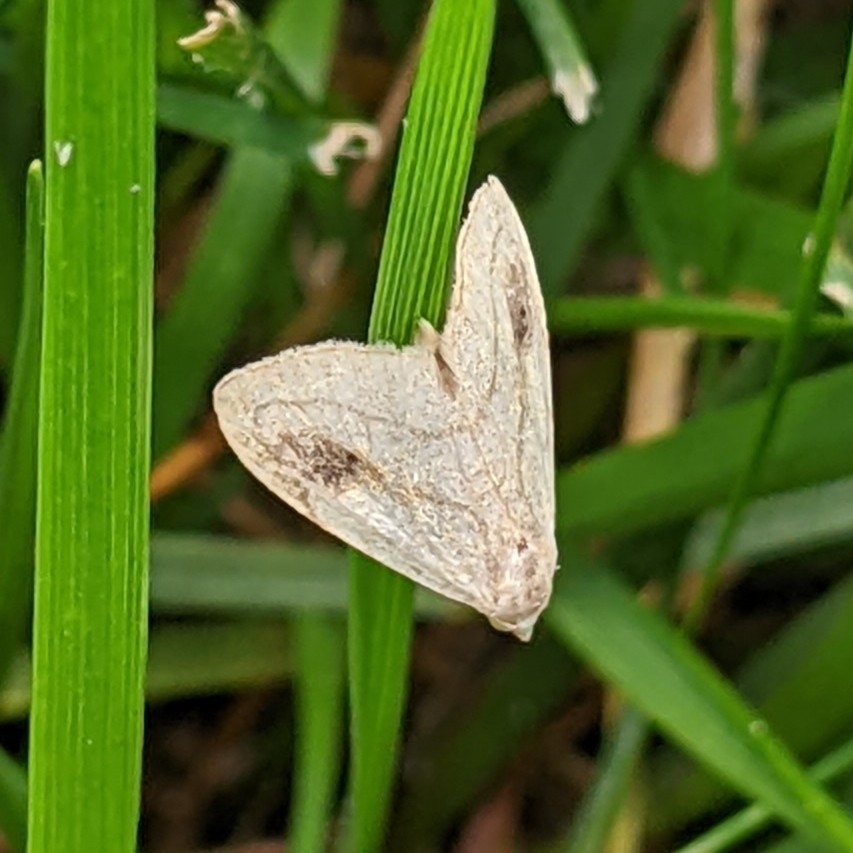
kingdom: Animalia
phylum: Arthropoda
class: Insecta
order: Lepidoptera
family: Erebidae
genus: Rivula
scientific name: Rivula propinqualis
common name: Spotted grass moth
